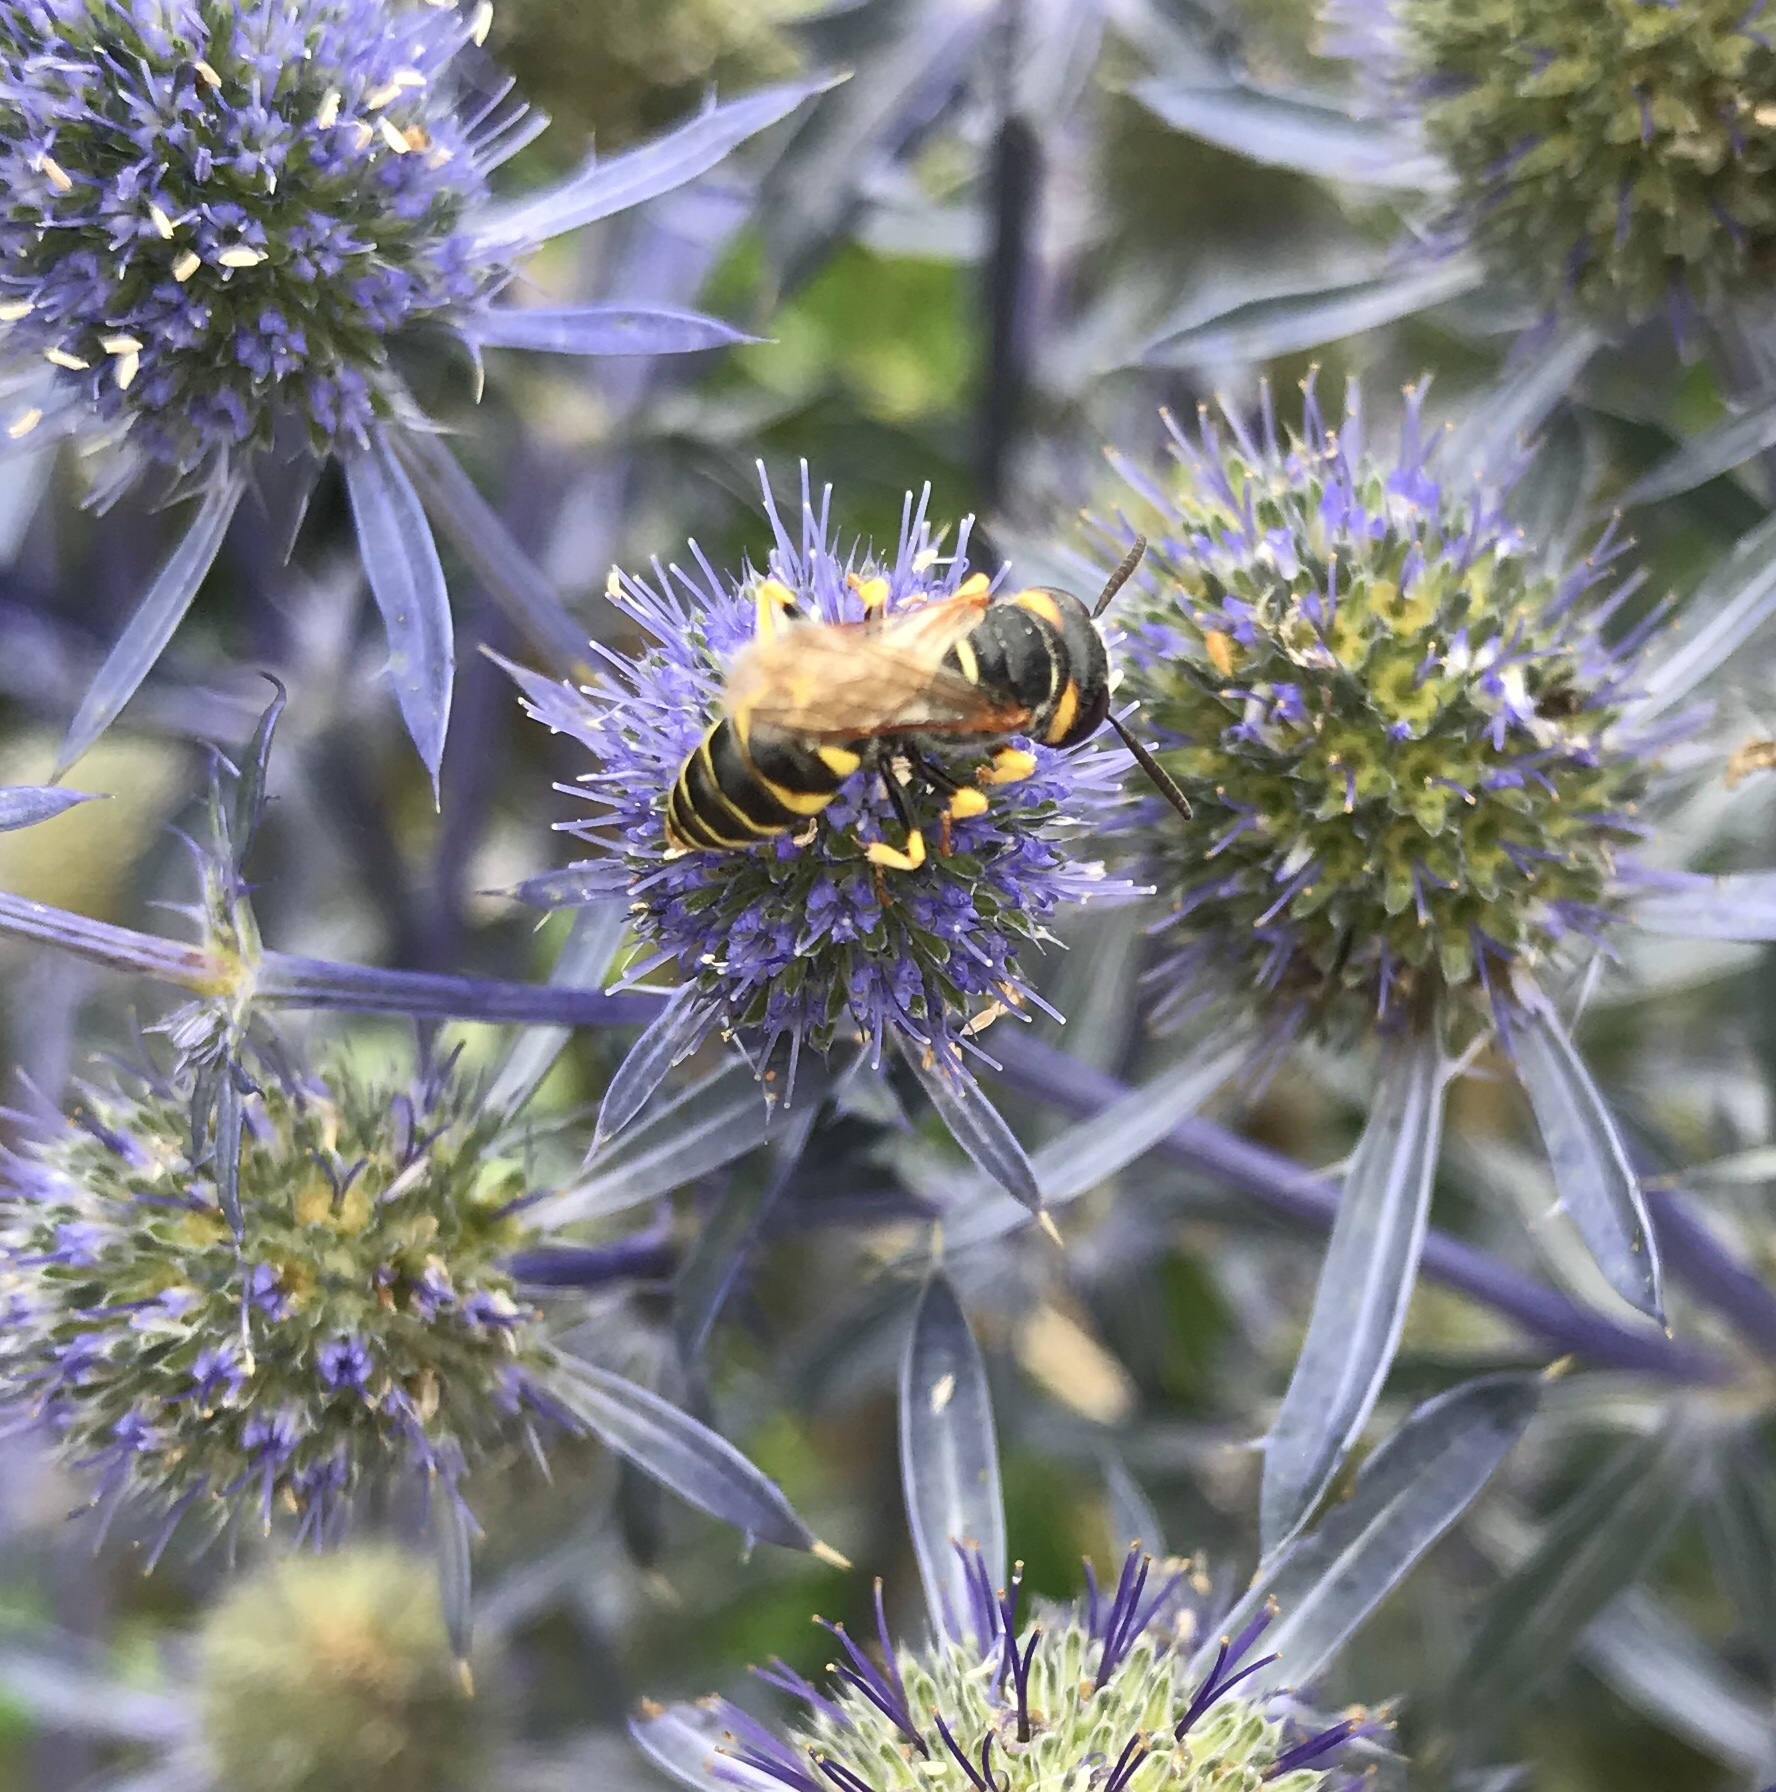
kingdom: Animalia
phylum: Arthropoda
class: Insecta
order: Hymenoptera
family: Crabronidae
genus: Philanthus
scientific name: Philanthus triangulum
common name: Bee wolf
